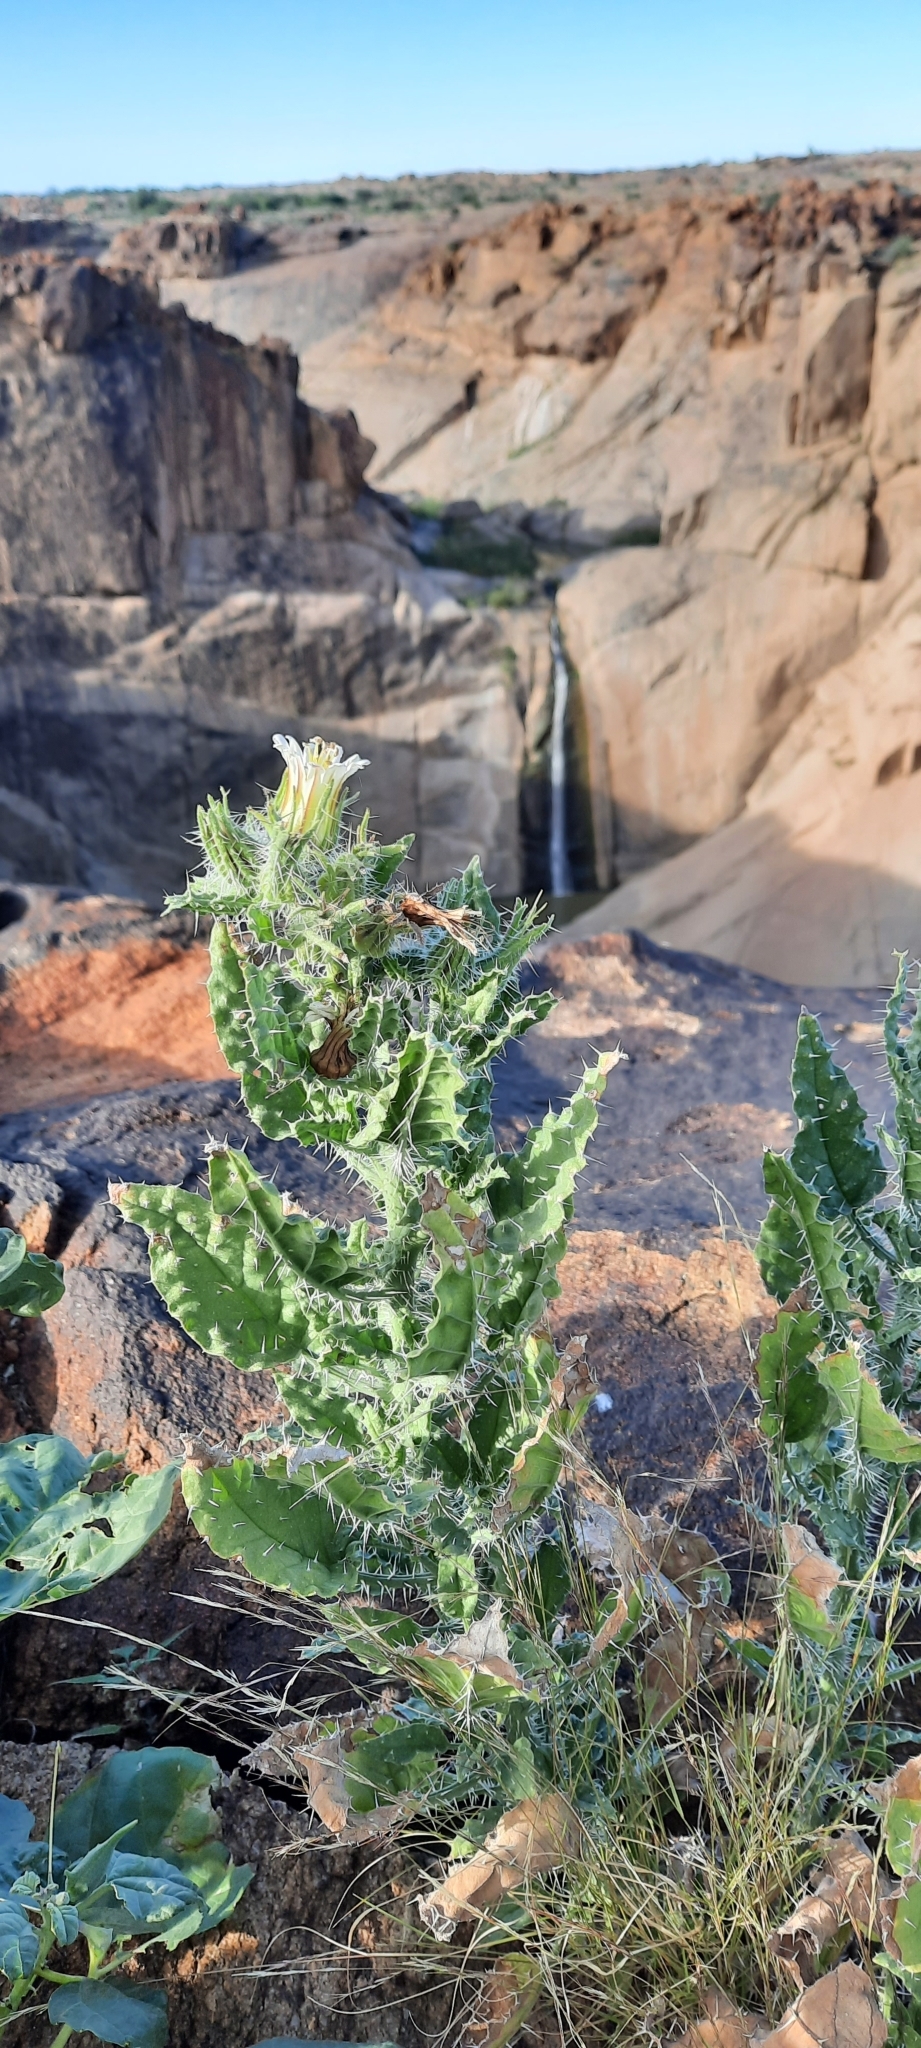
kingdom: Plantae
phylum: Tracheophyta
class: Magnoliopsida
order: Boraginales
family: Boraginaceae
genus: Codon
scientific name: Codon royenii
